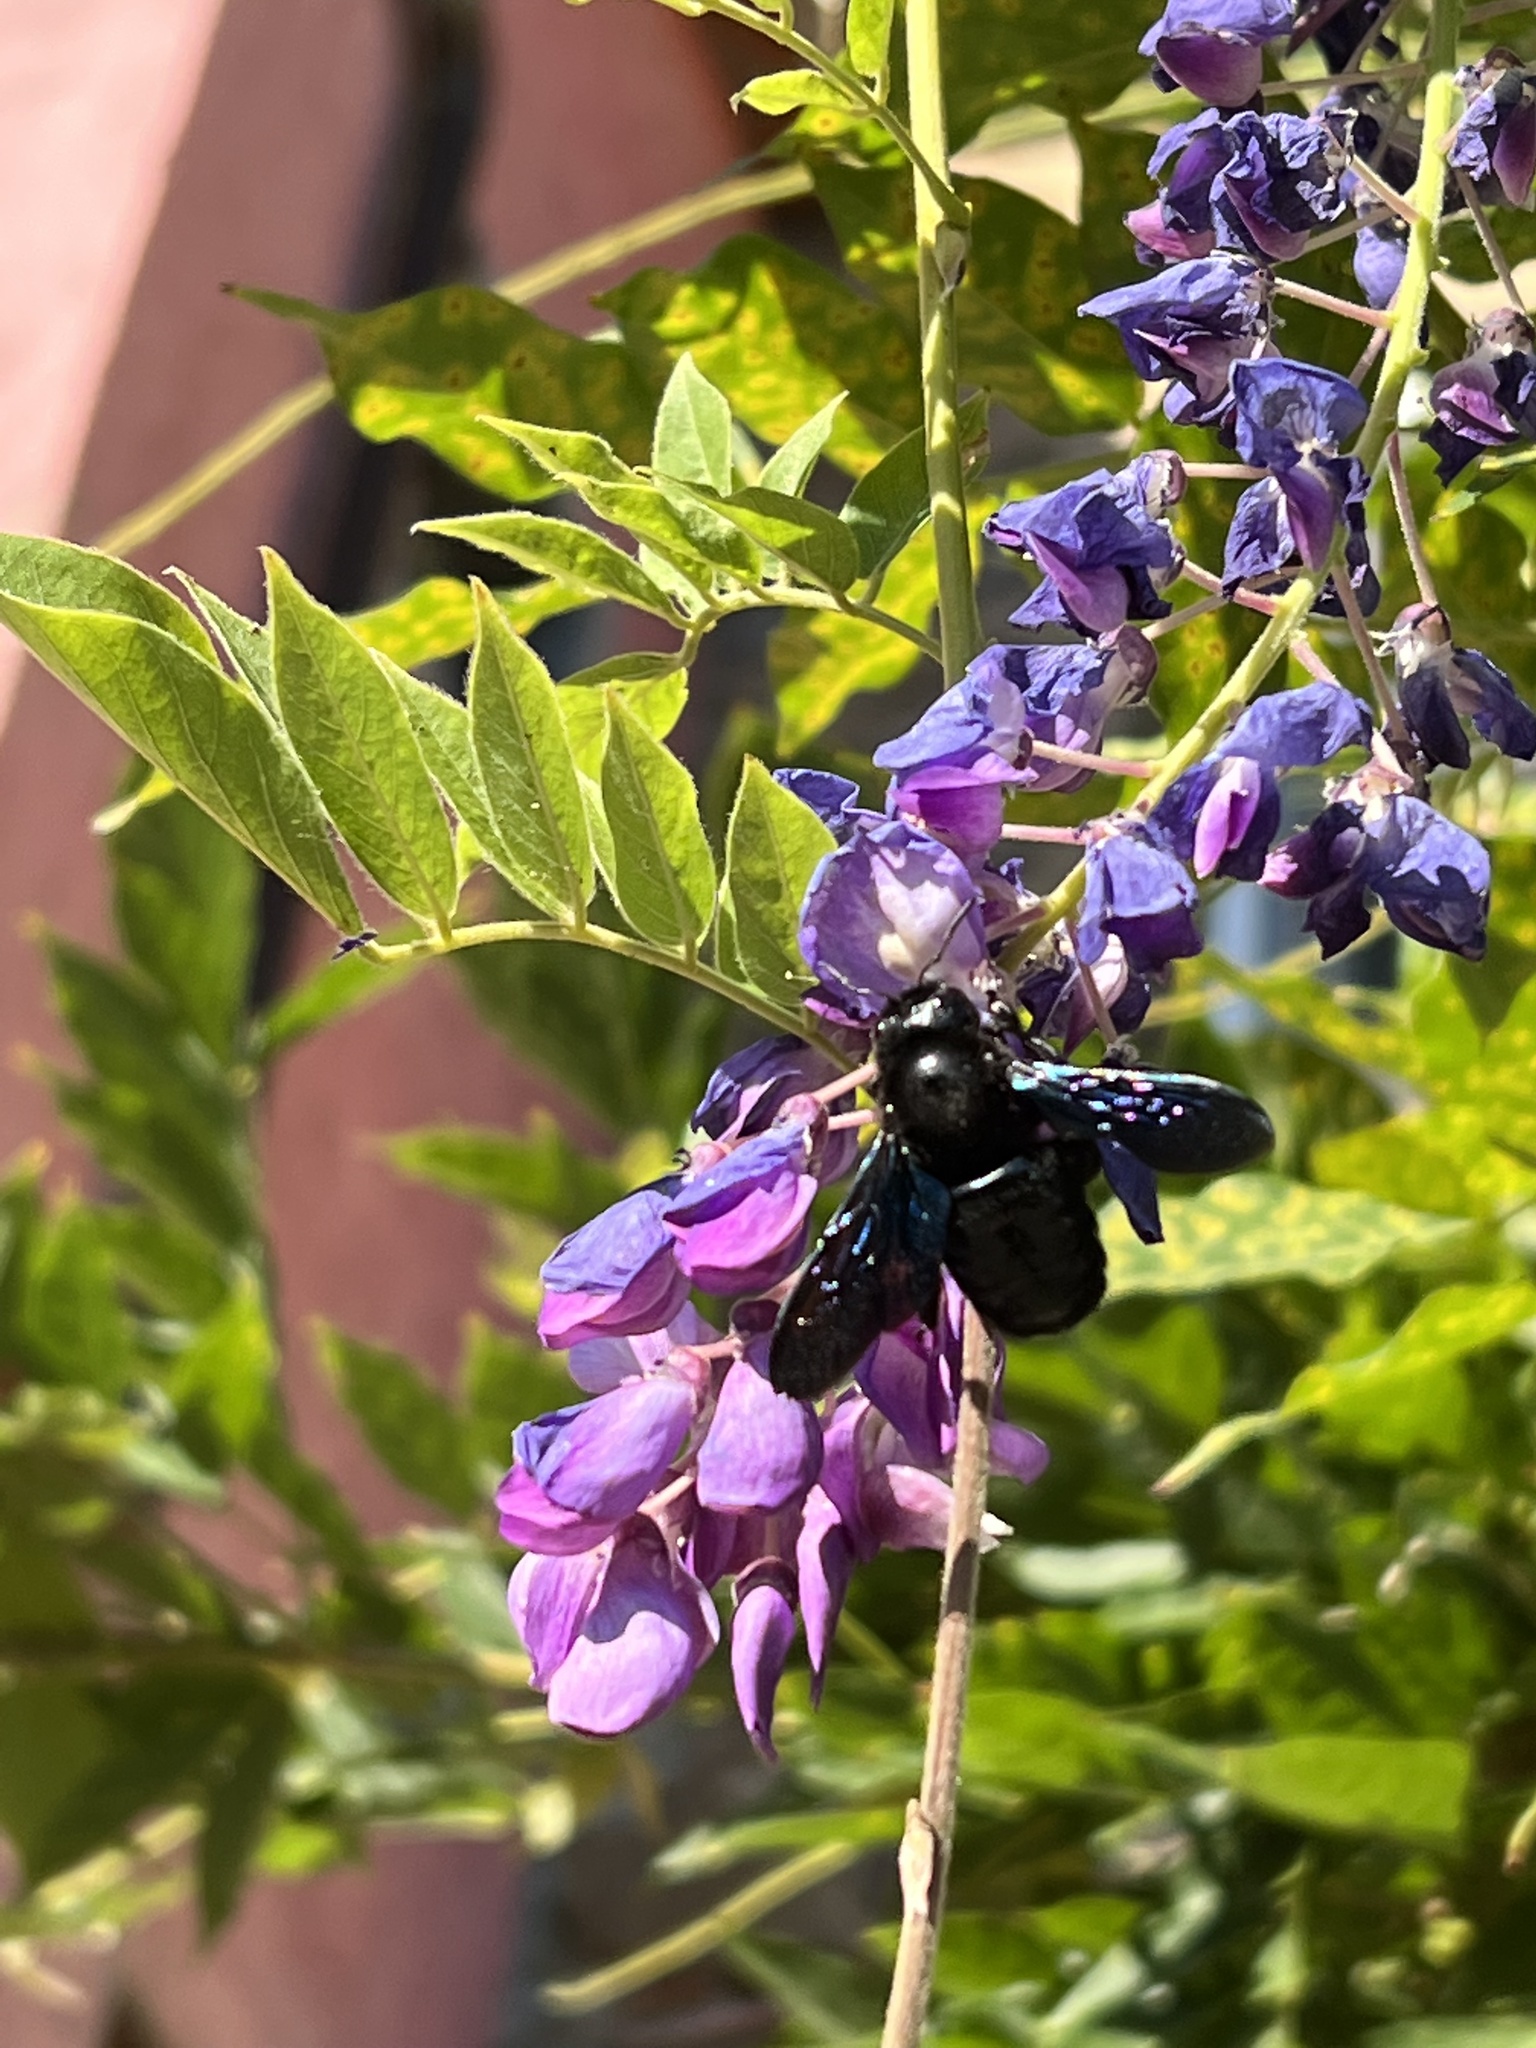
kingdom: Animalia
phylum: Arthropoda
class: Insecta
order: Hymenoptera
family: Apidae
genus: Xylocopa
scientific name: Xylocopa violacea
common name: Violet carpenter bee
